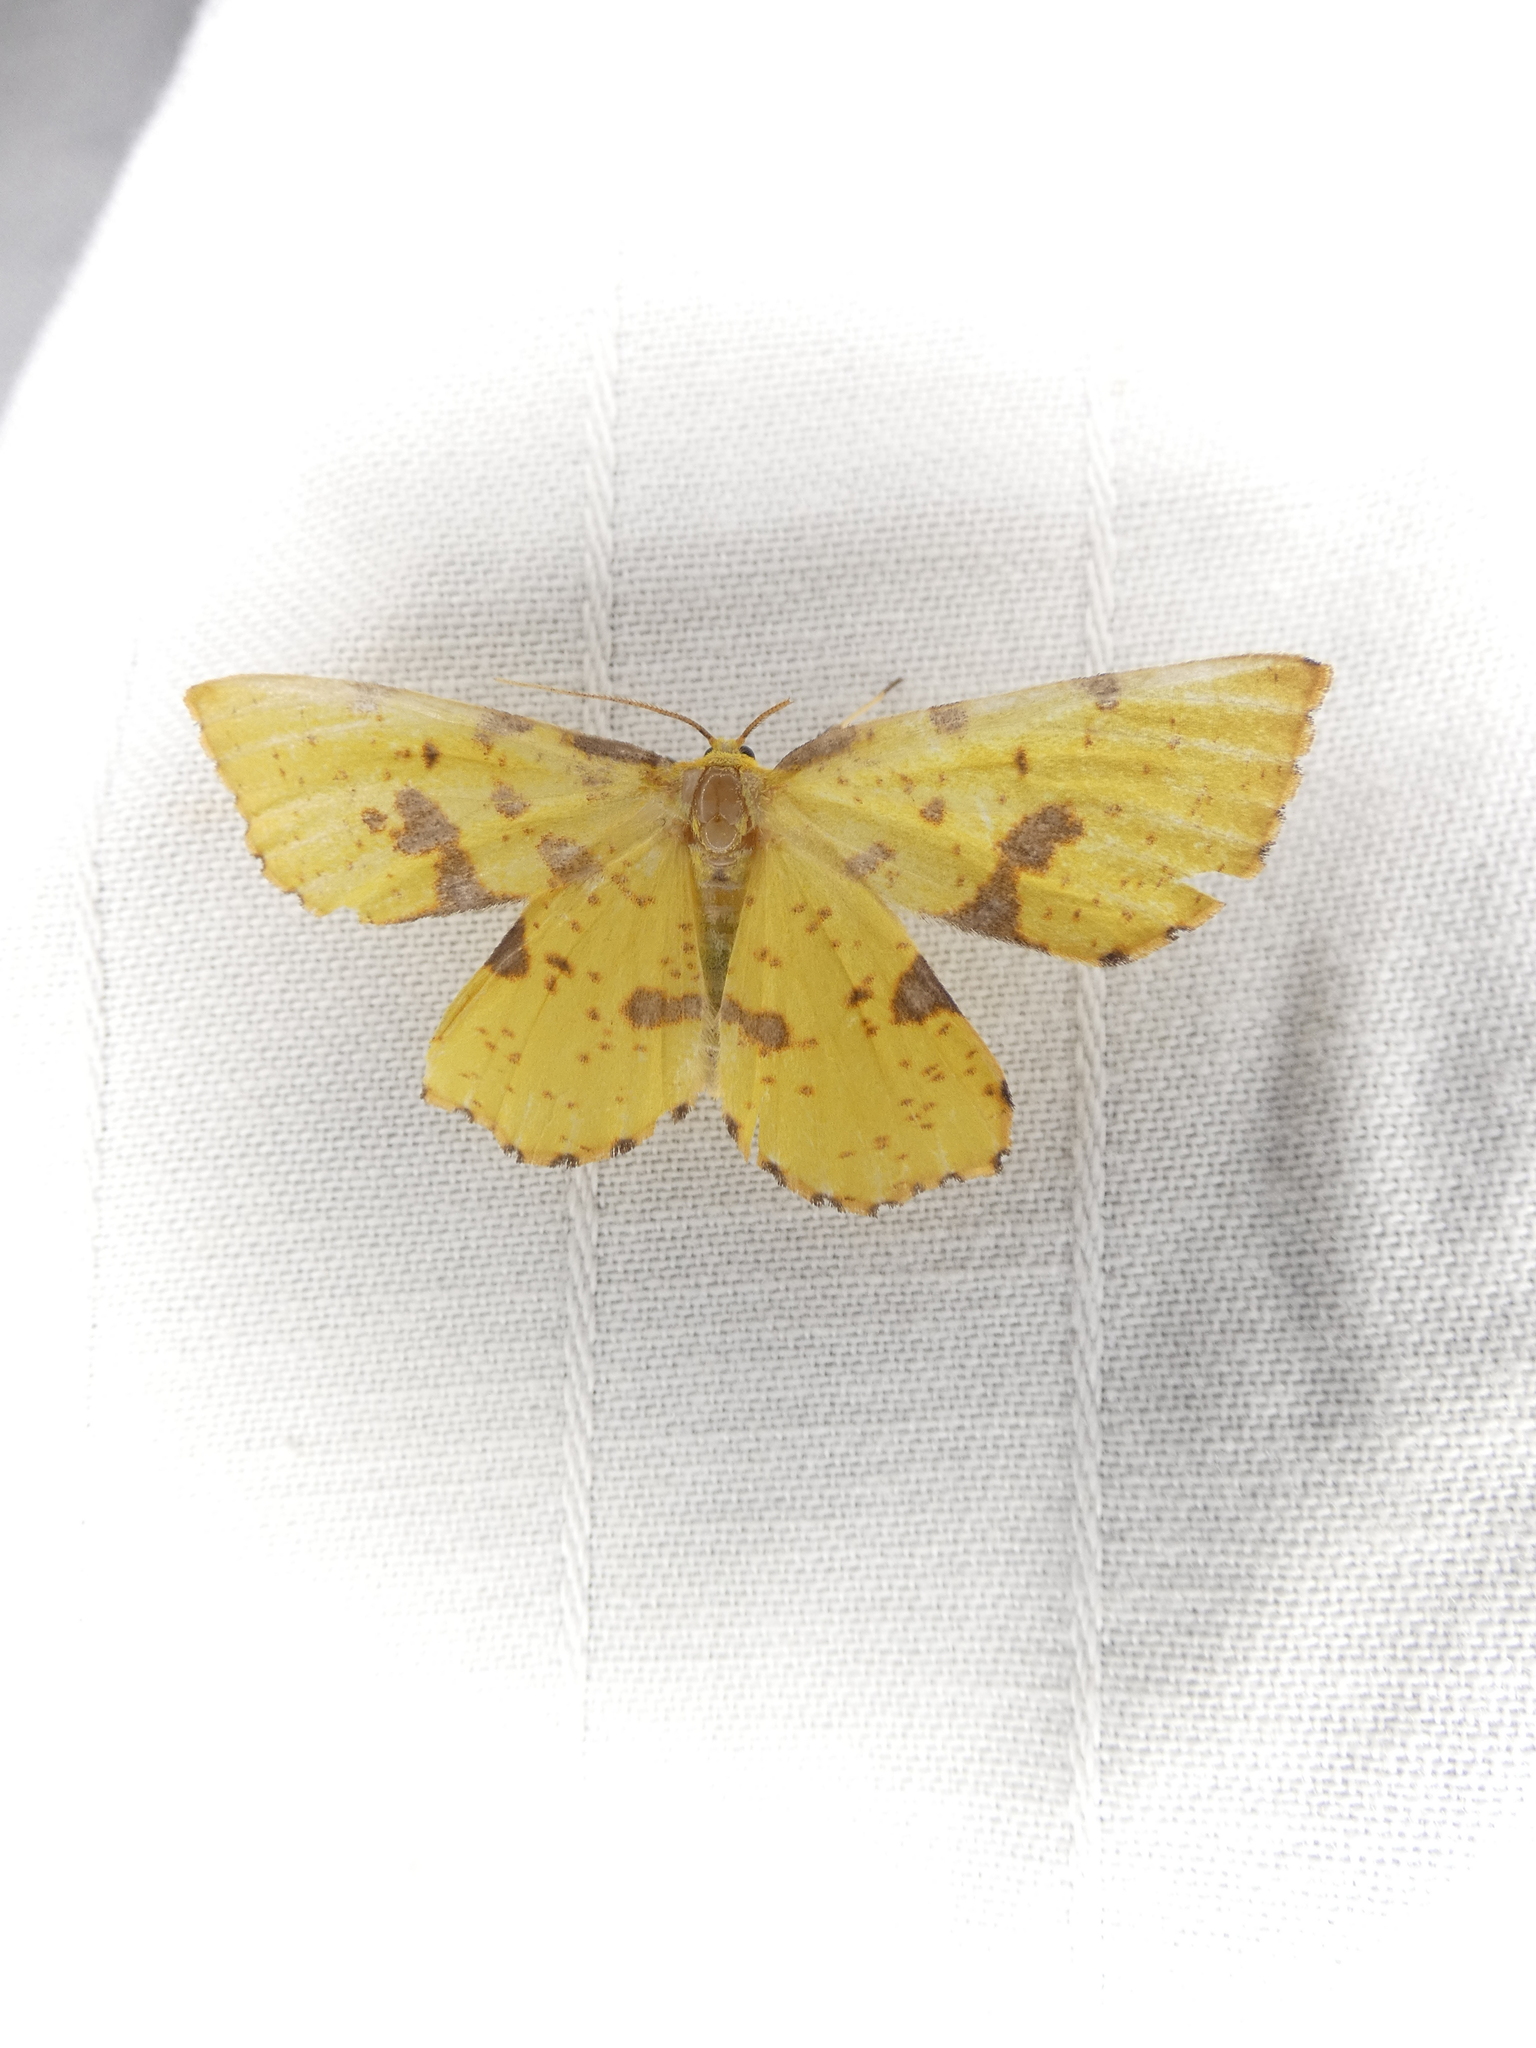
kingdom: Animalia
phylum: Arthropoda
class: Insecta
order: Lepidoptera
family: Geometridae
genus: Xanthotype
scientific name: Xanthotype
